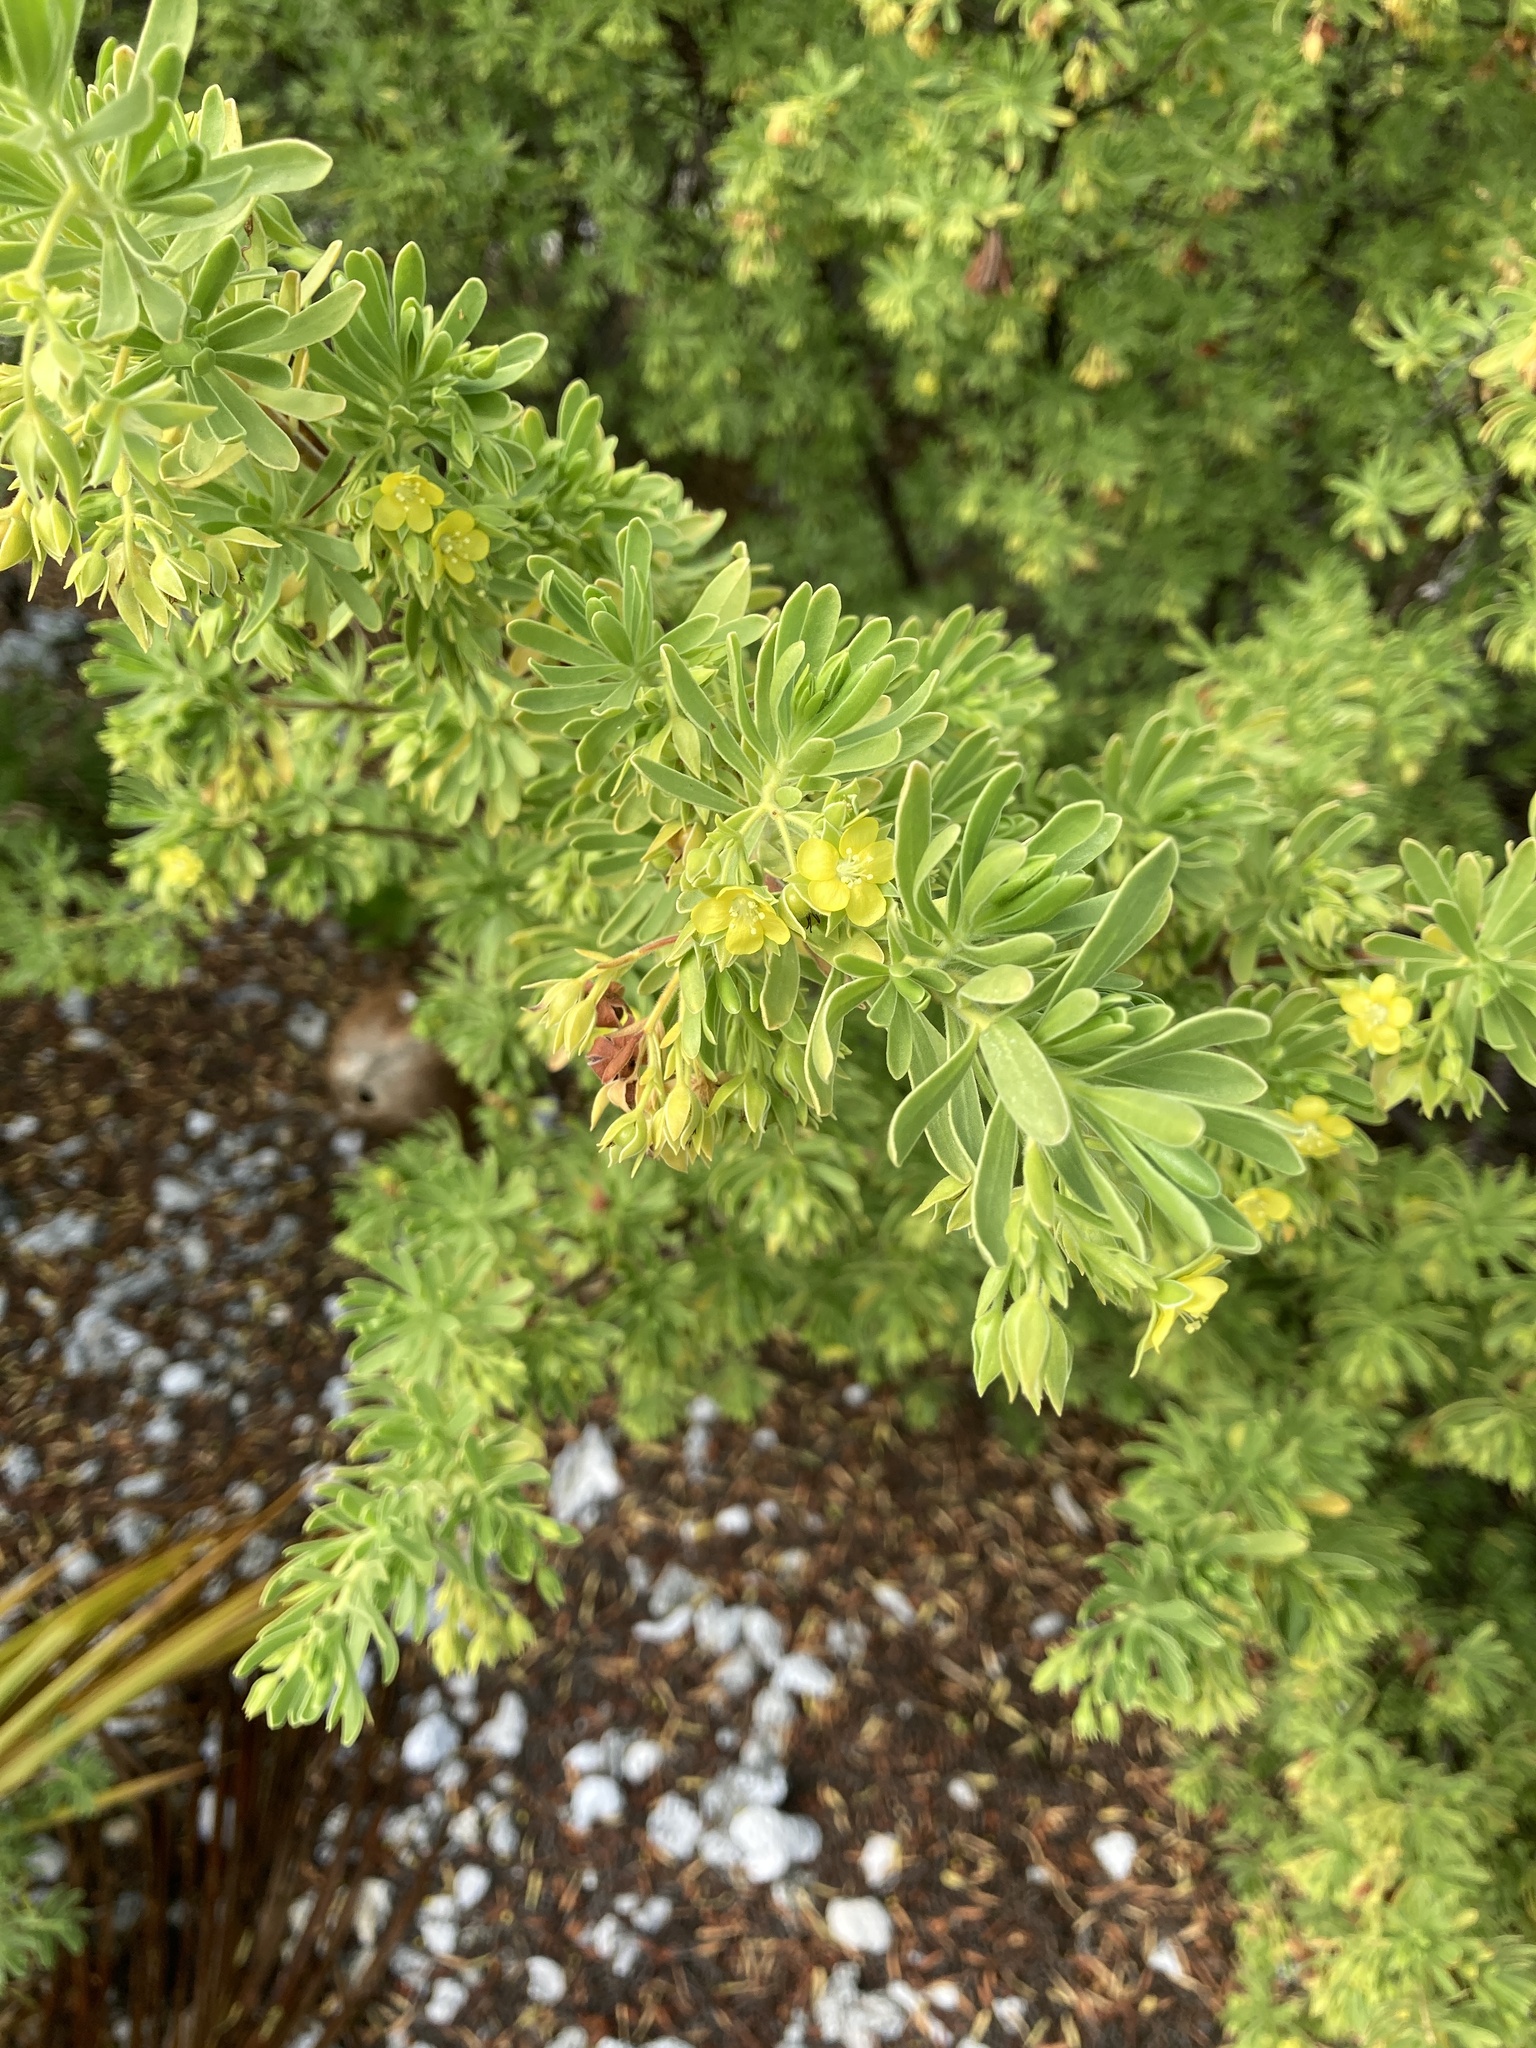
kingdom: Plantae
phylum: Tracheophyta
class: Magnoliopsida
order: Fabales
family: Surianaceae
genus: Suriana
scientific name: Suriana maritima
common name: Bay-cedar
